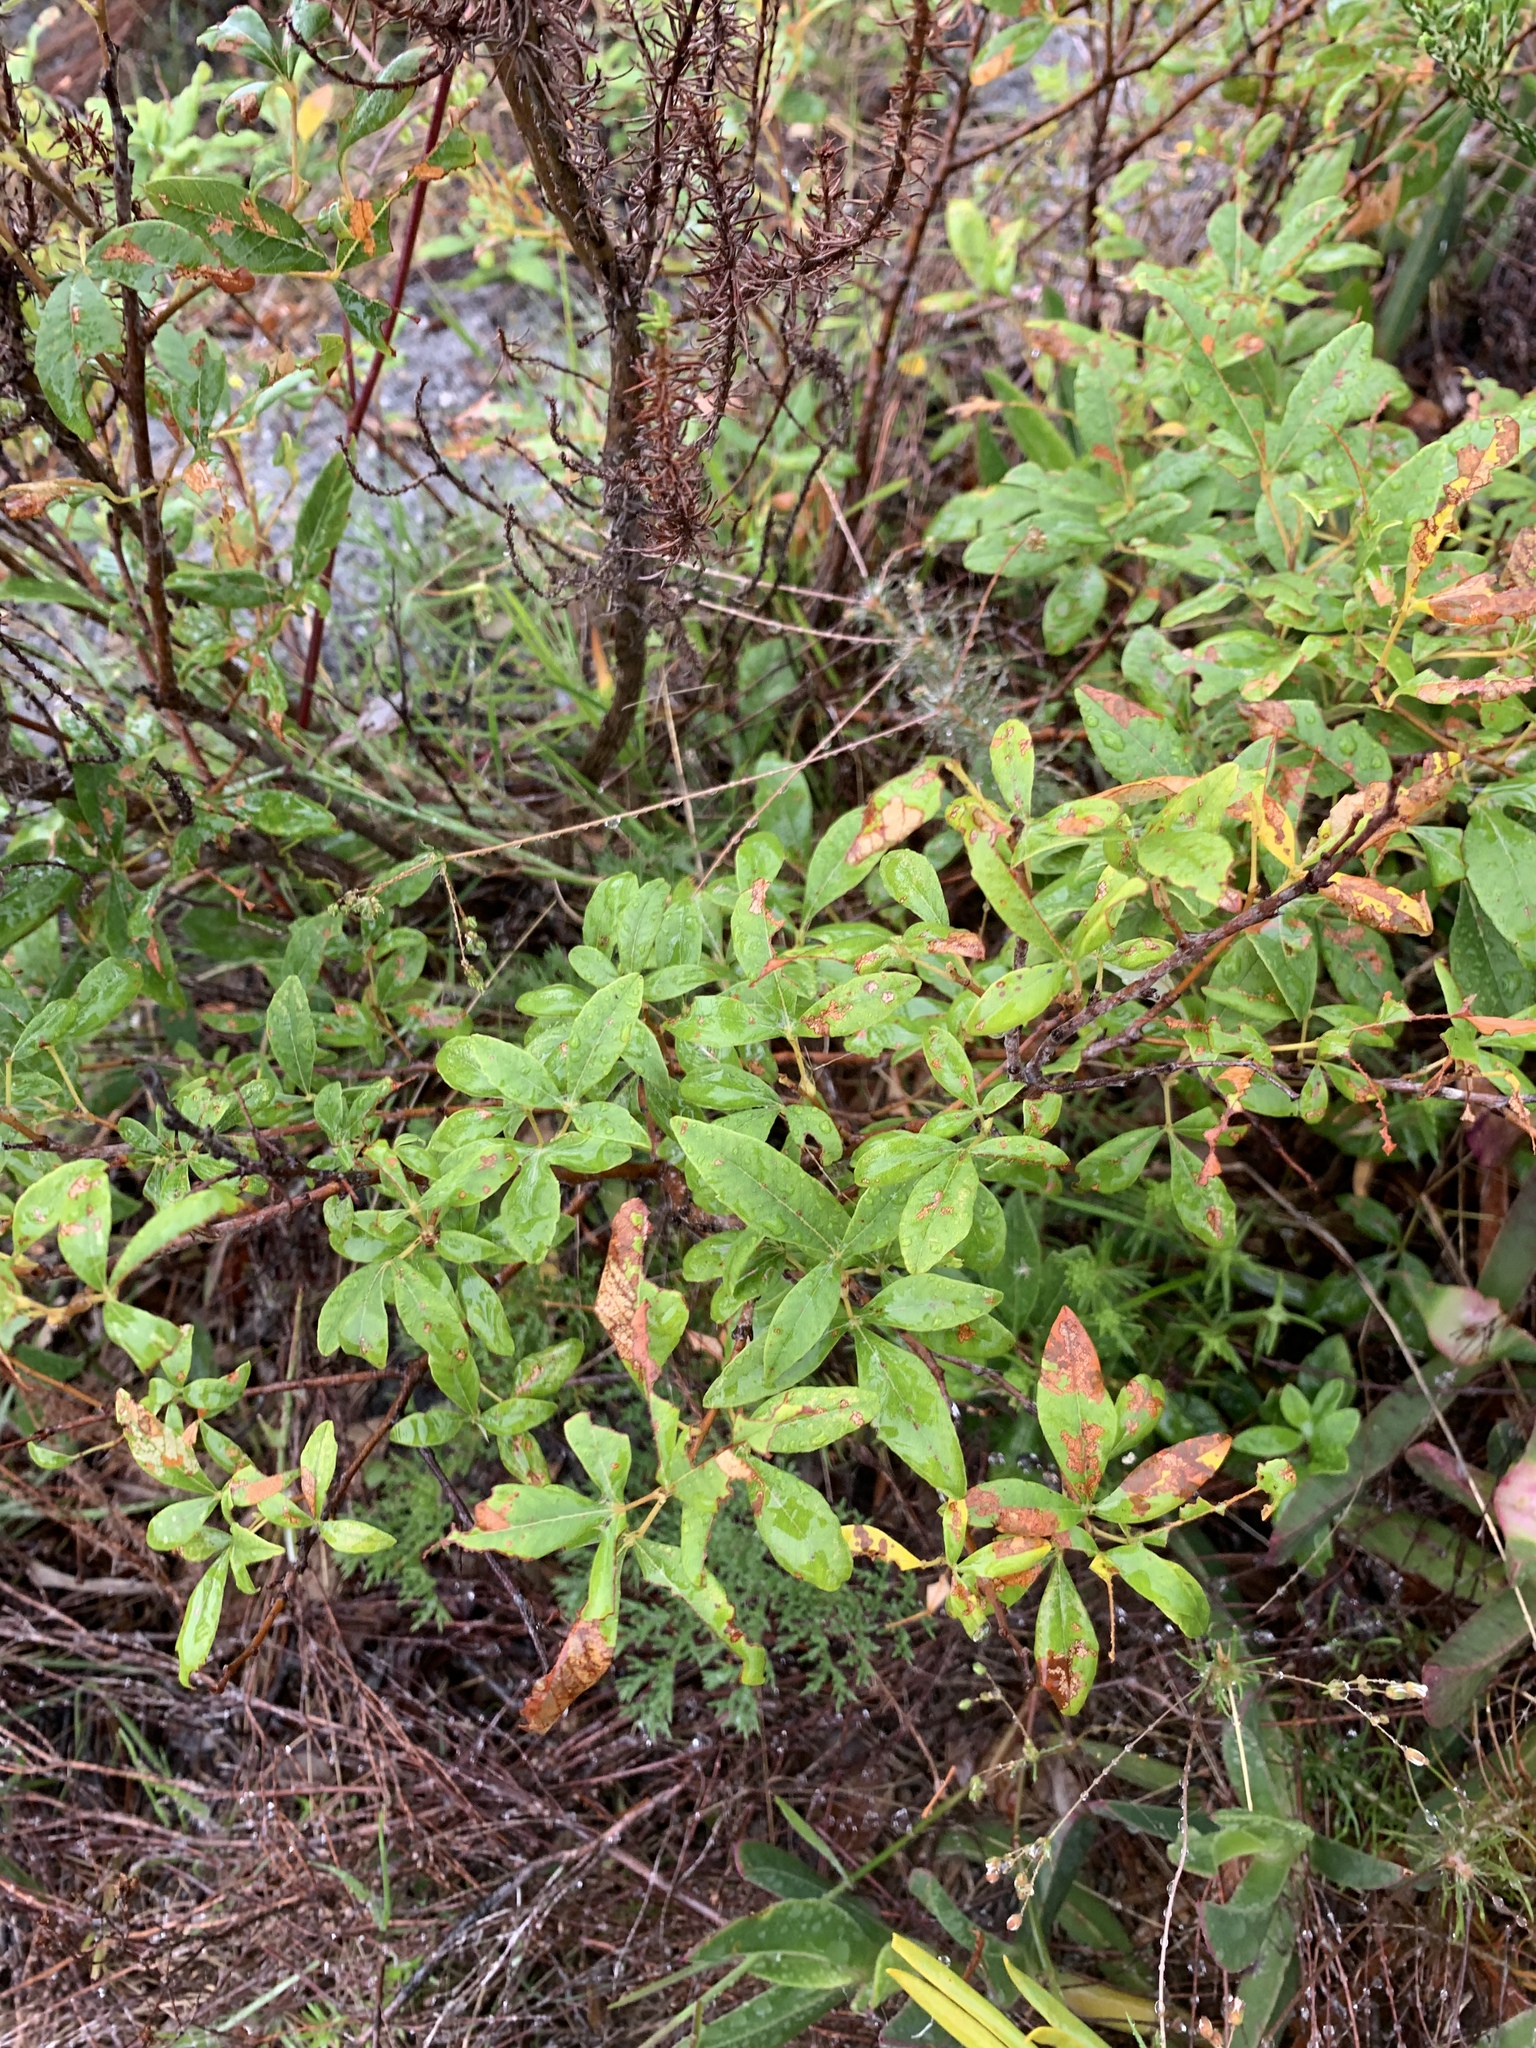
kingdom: Plantae
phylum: Tracheophyta
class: Magnoliopsida
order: Sapindales
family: Anacardiaceae
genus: Searsia
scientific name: Searsia tomentosa
